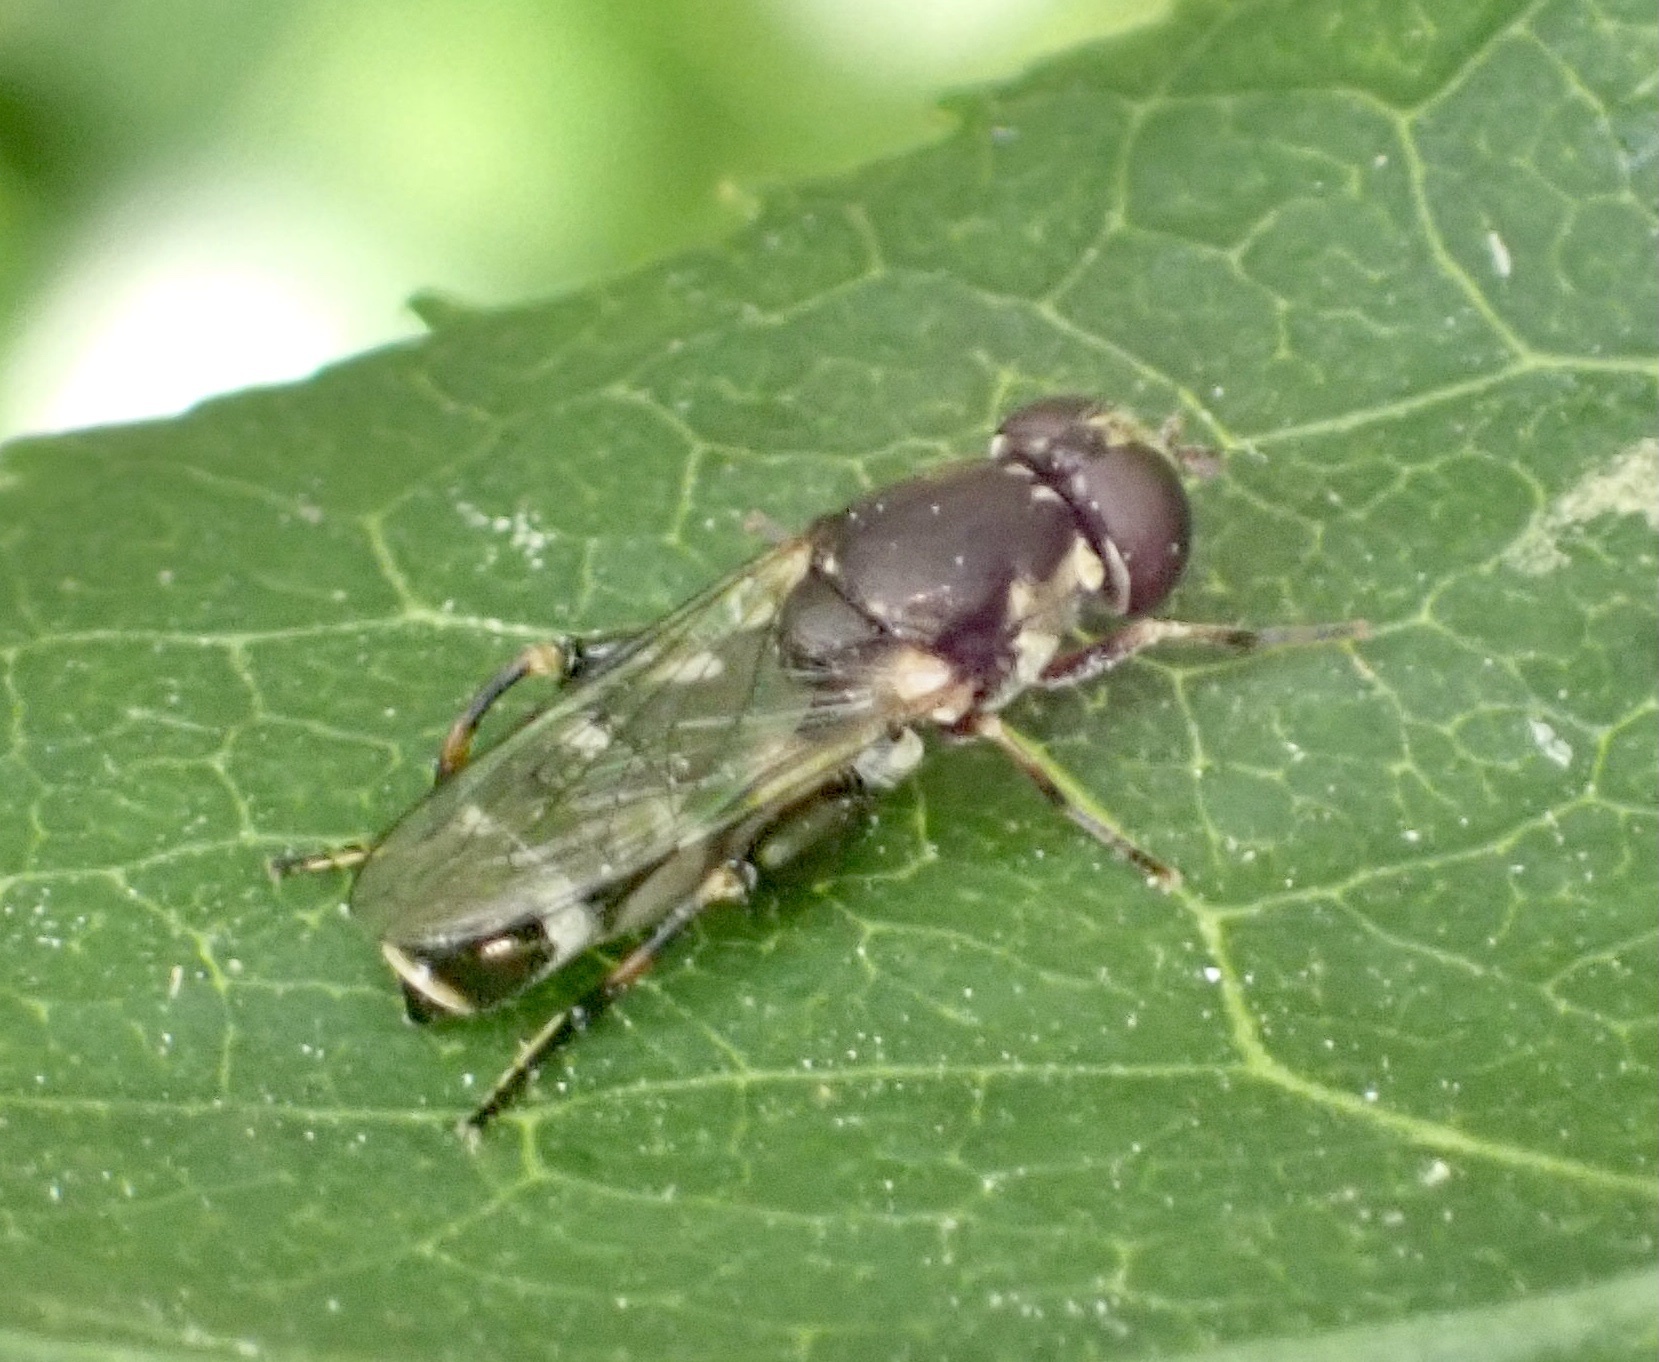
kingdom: Animalia
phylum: Arthropoda
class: Insecta
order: Diptera
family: Syrphidae
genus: Syritta
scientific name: Syritta pipiens
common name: Hover fly
